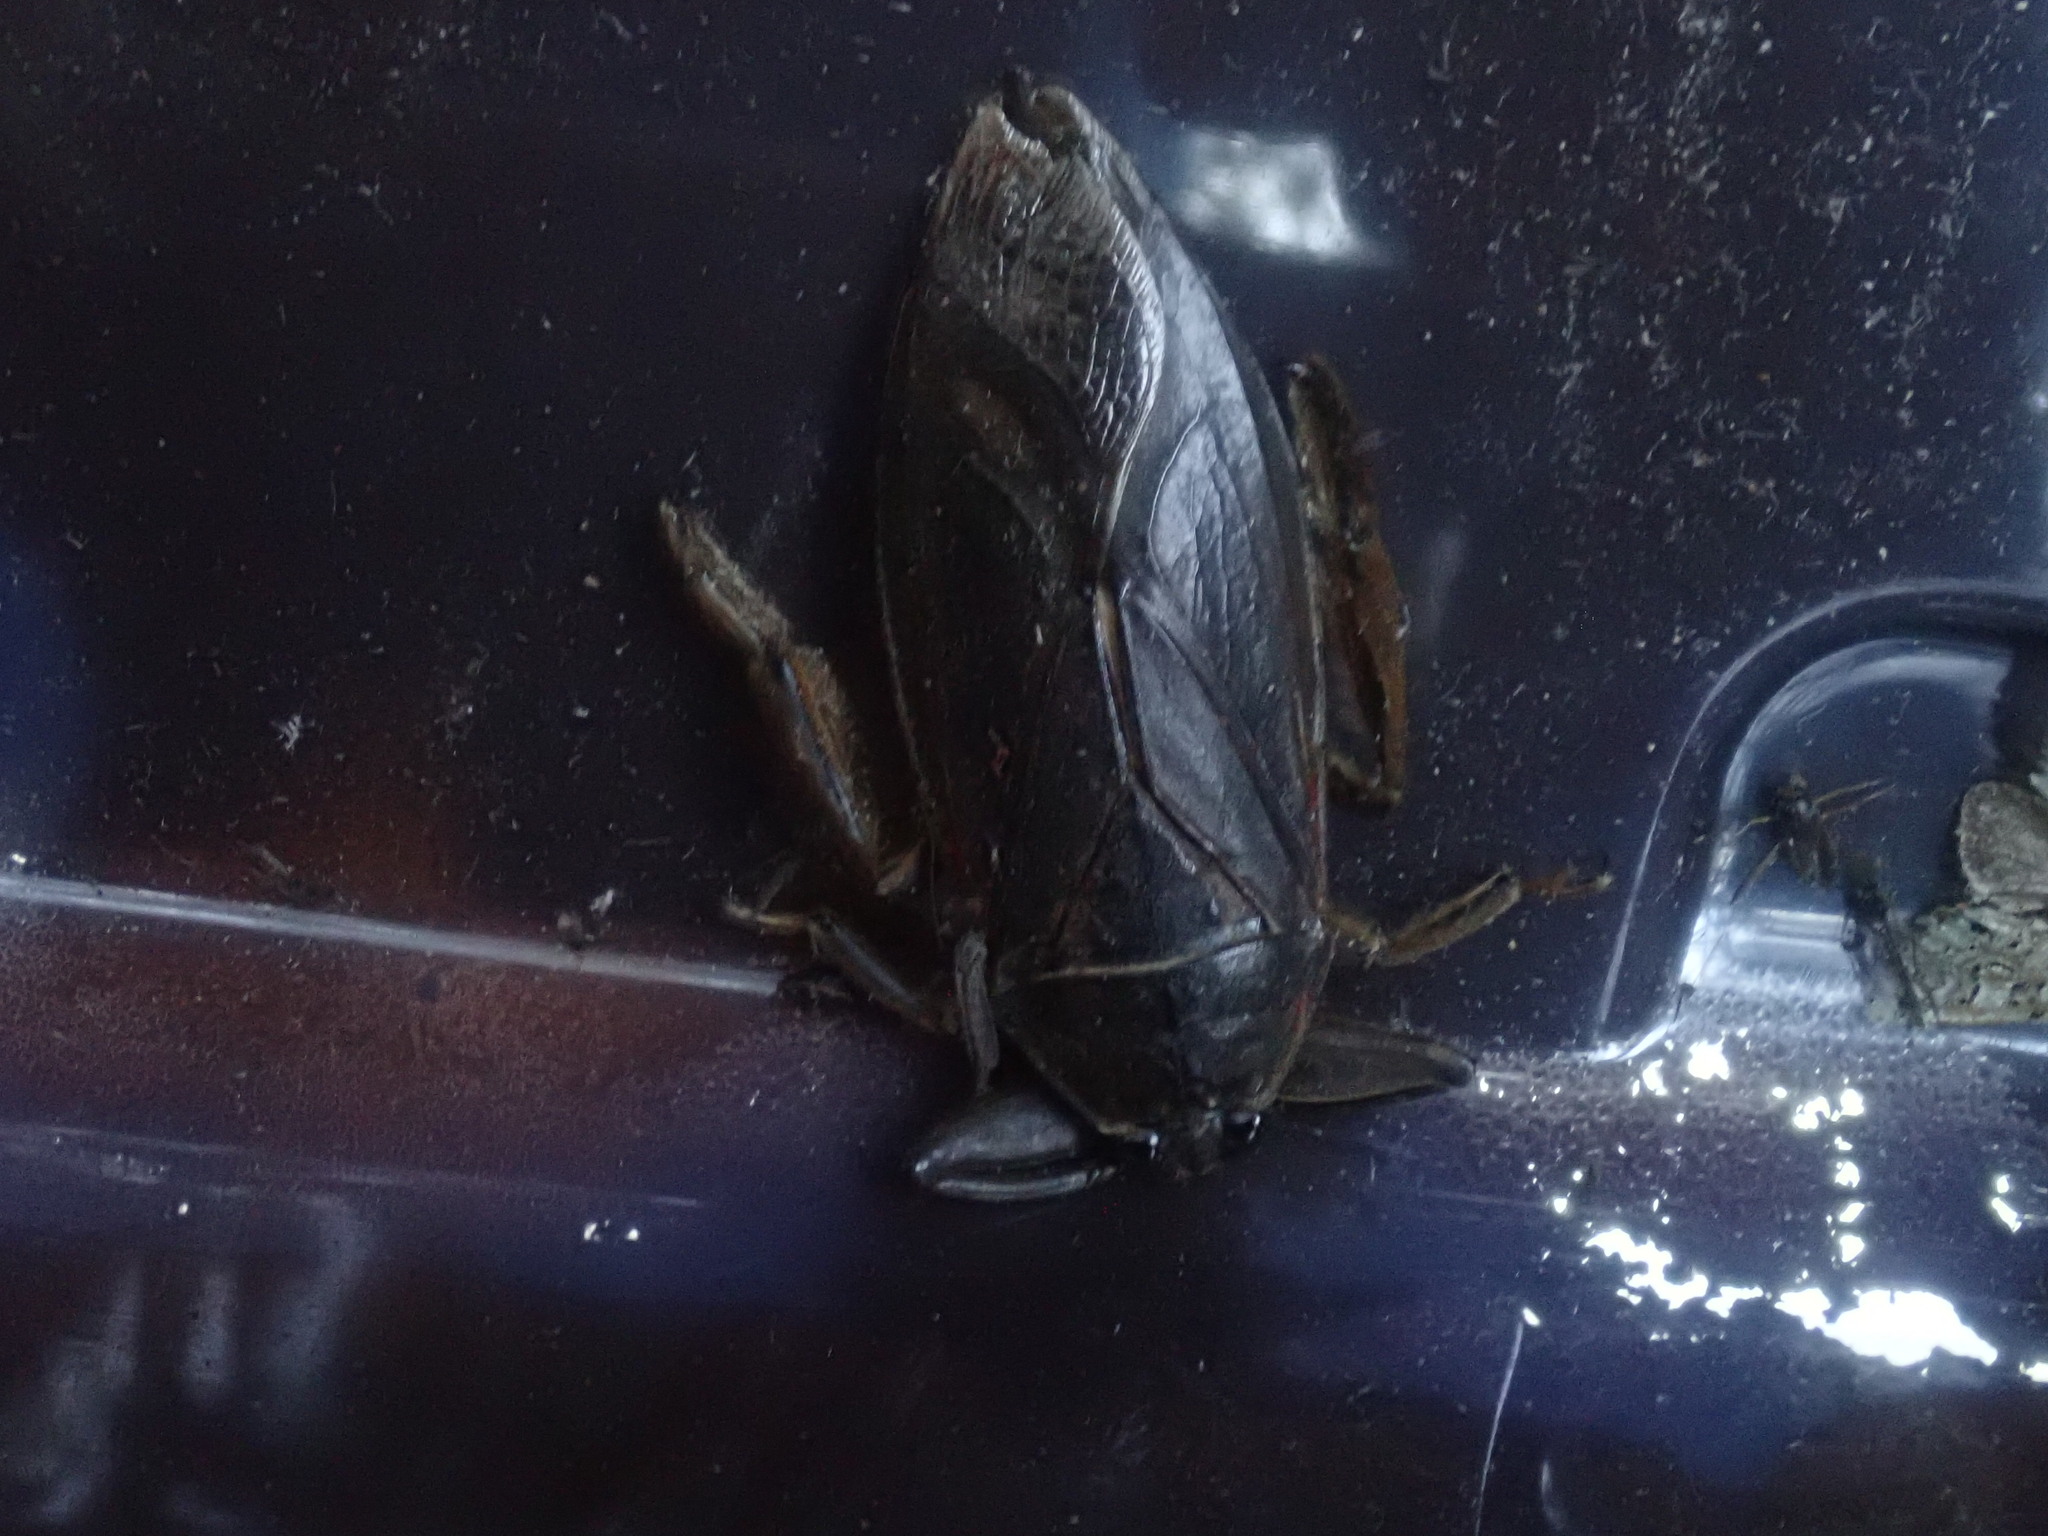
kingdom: Animalia
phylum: Arthropoda
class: Insecta
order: Hemiptera
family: Belostomatidae
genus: Lethocerus
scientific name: Lethocerus americanus
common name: Giant water bug
